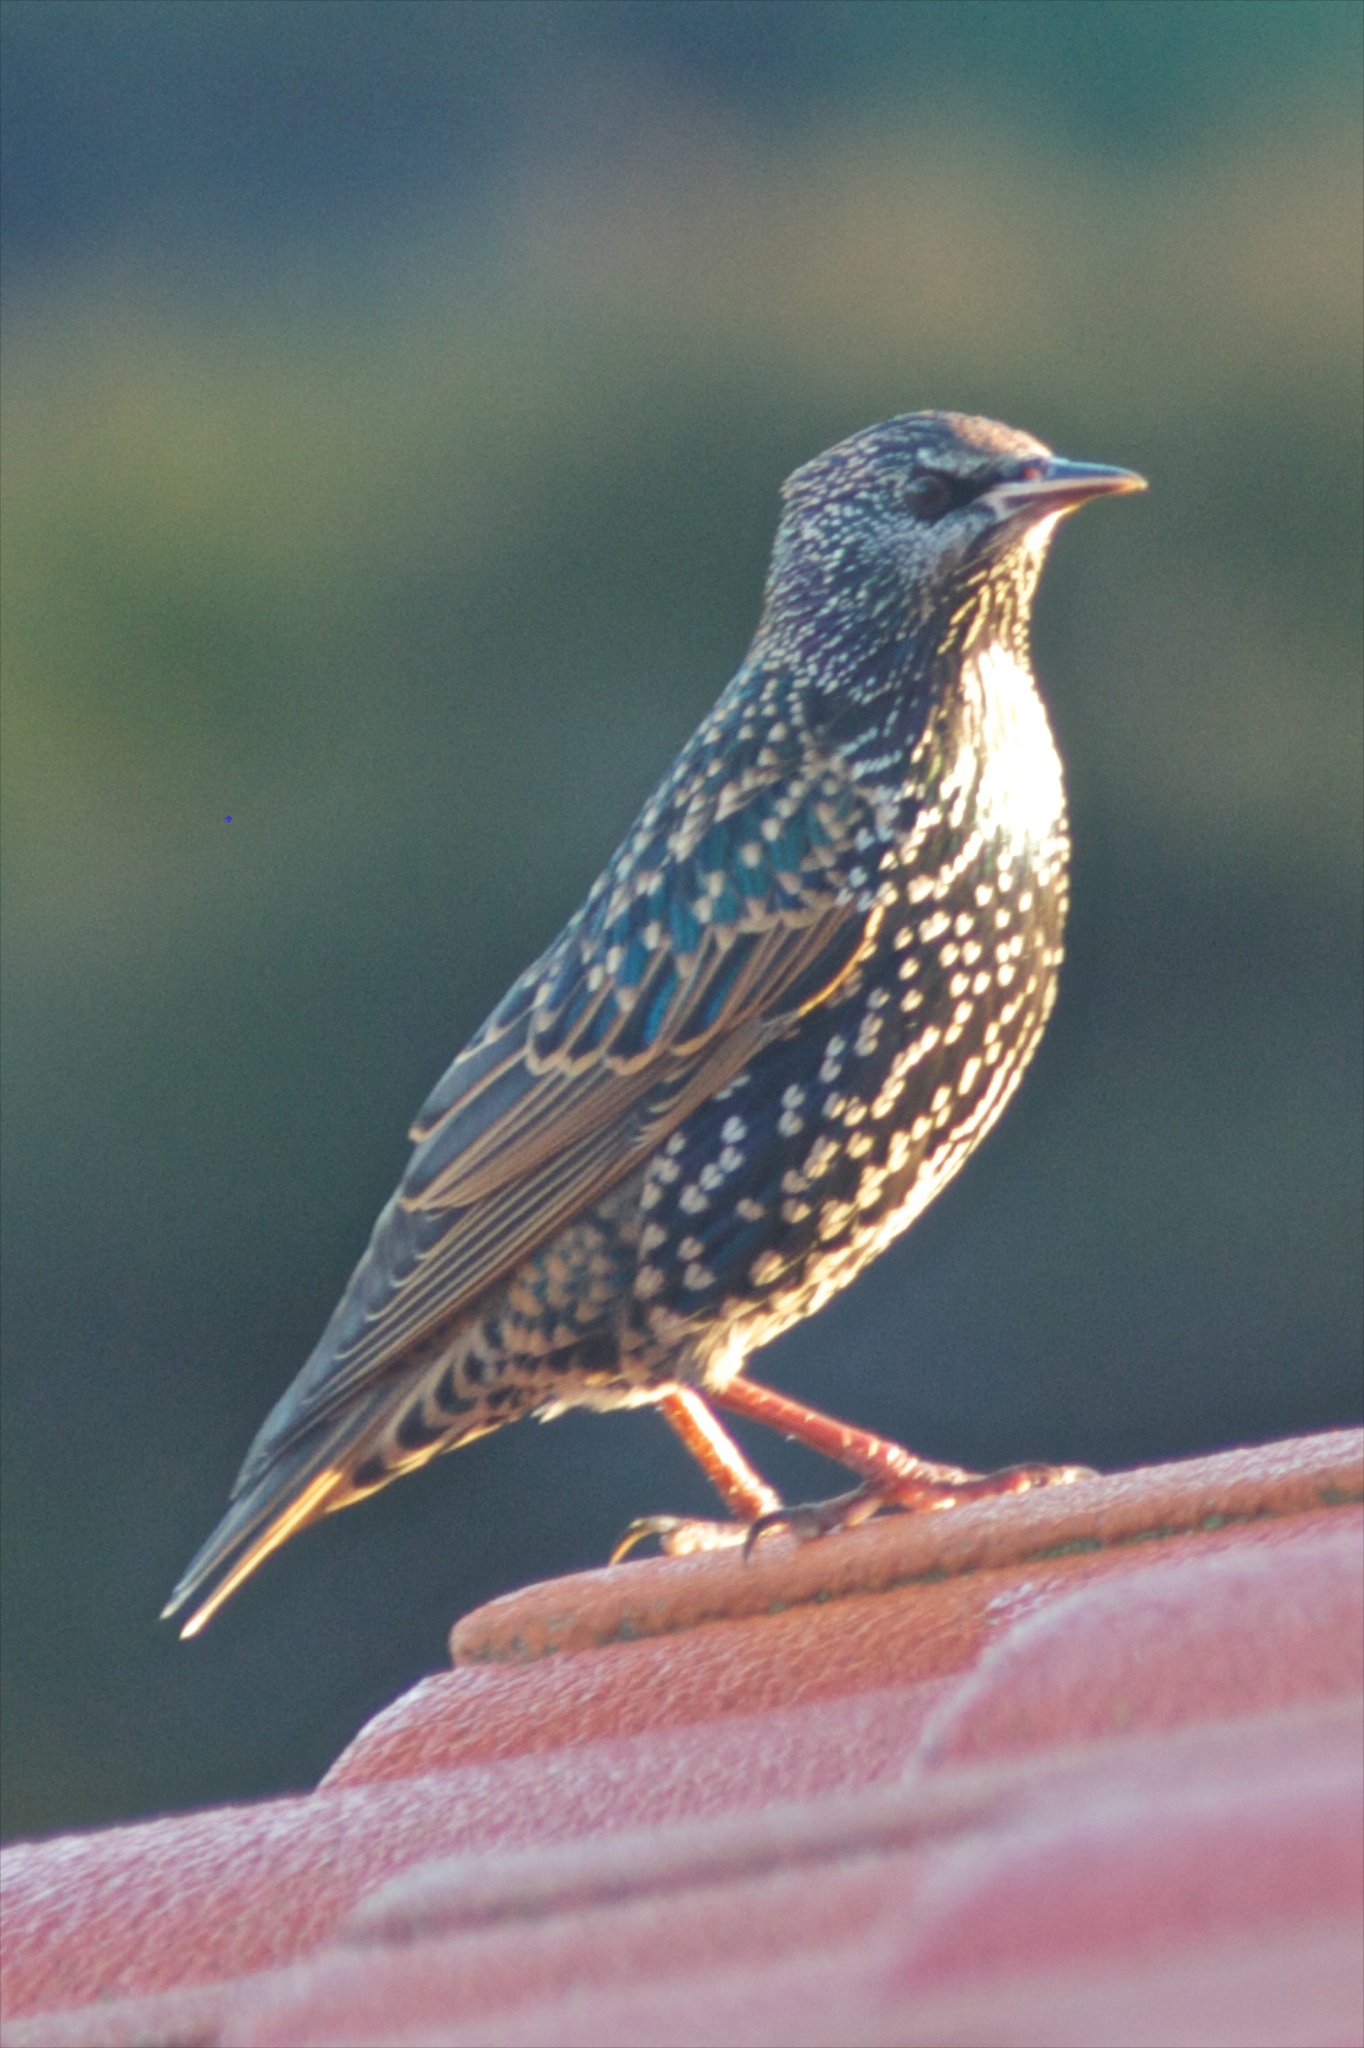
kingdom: Animalia
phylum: Chordata
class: Aves
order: Passeriformes
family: Sturnidae
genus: Sturnus
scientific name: Sturnus vulgaris
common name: Common starling
